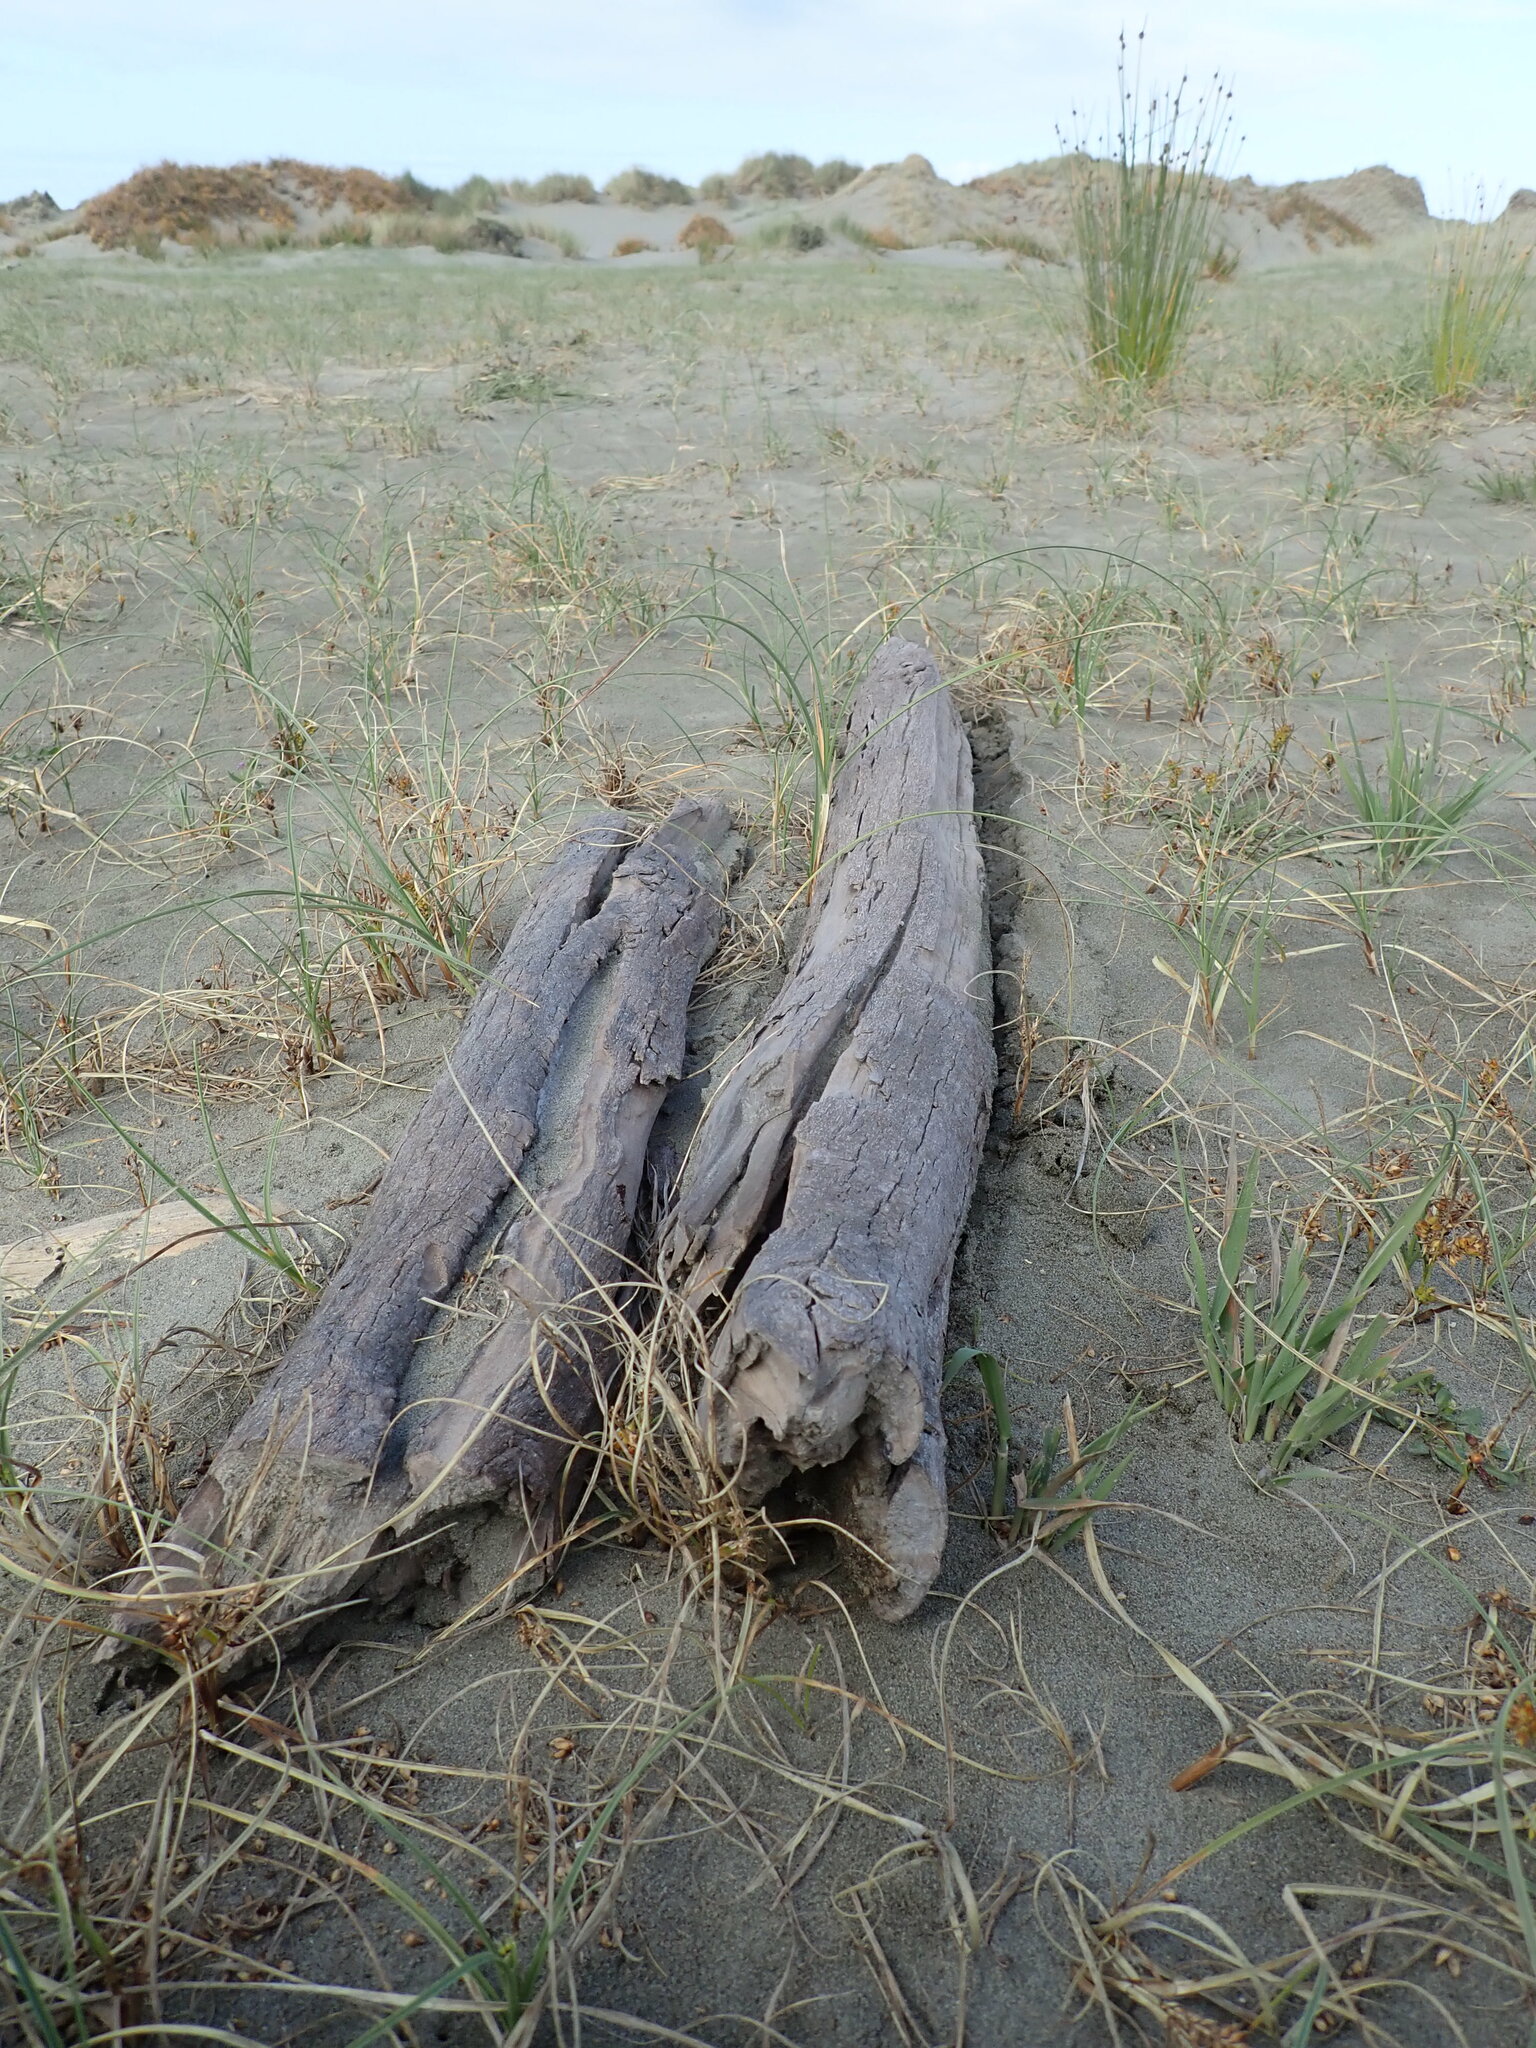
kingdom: Animalia
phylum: Arthropoda
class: Insecta
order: Dermaptera
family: Anisolabididae
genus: Anisolabis
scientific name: Anisolabis littorea
